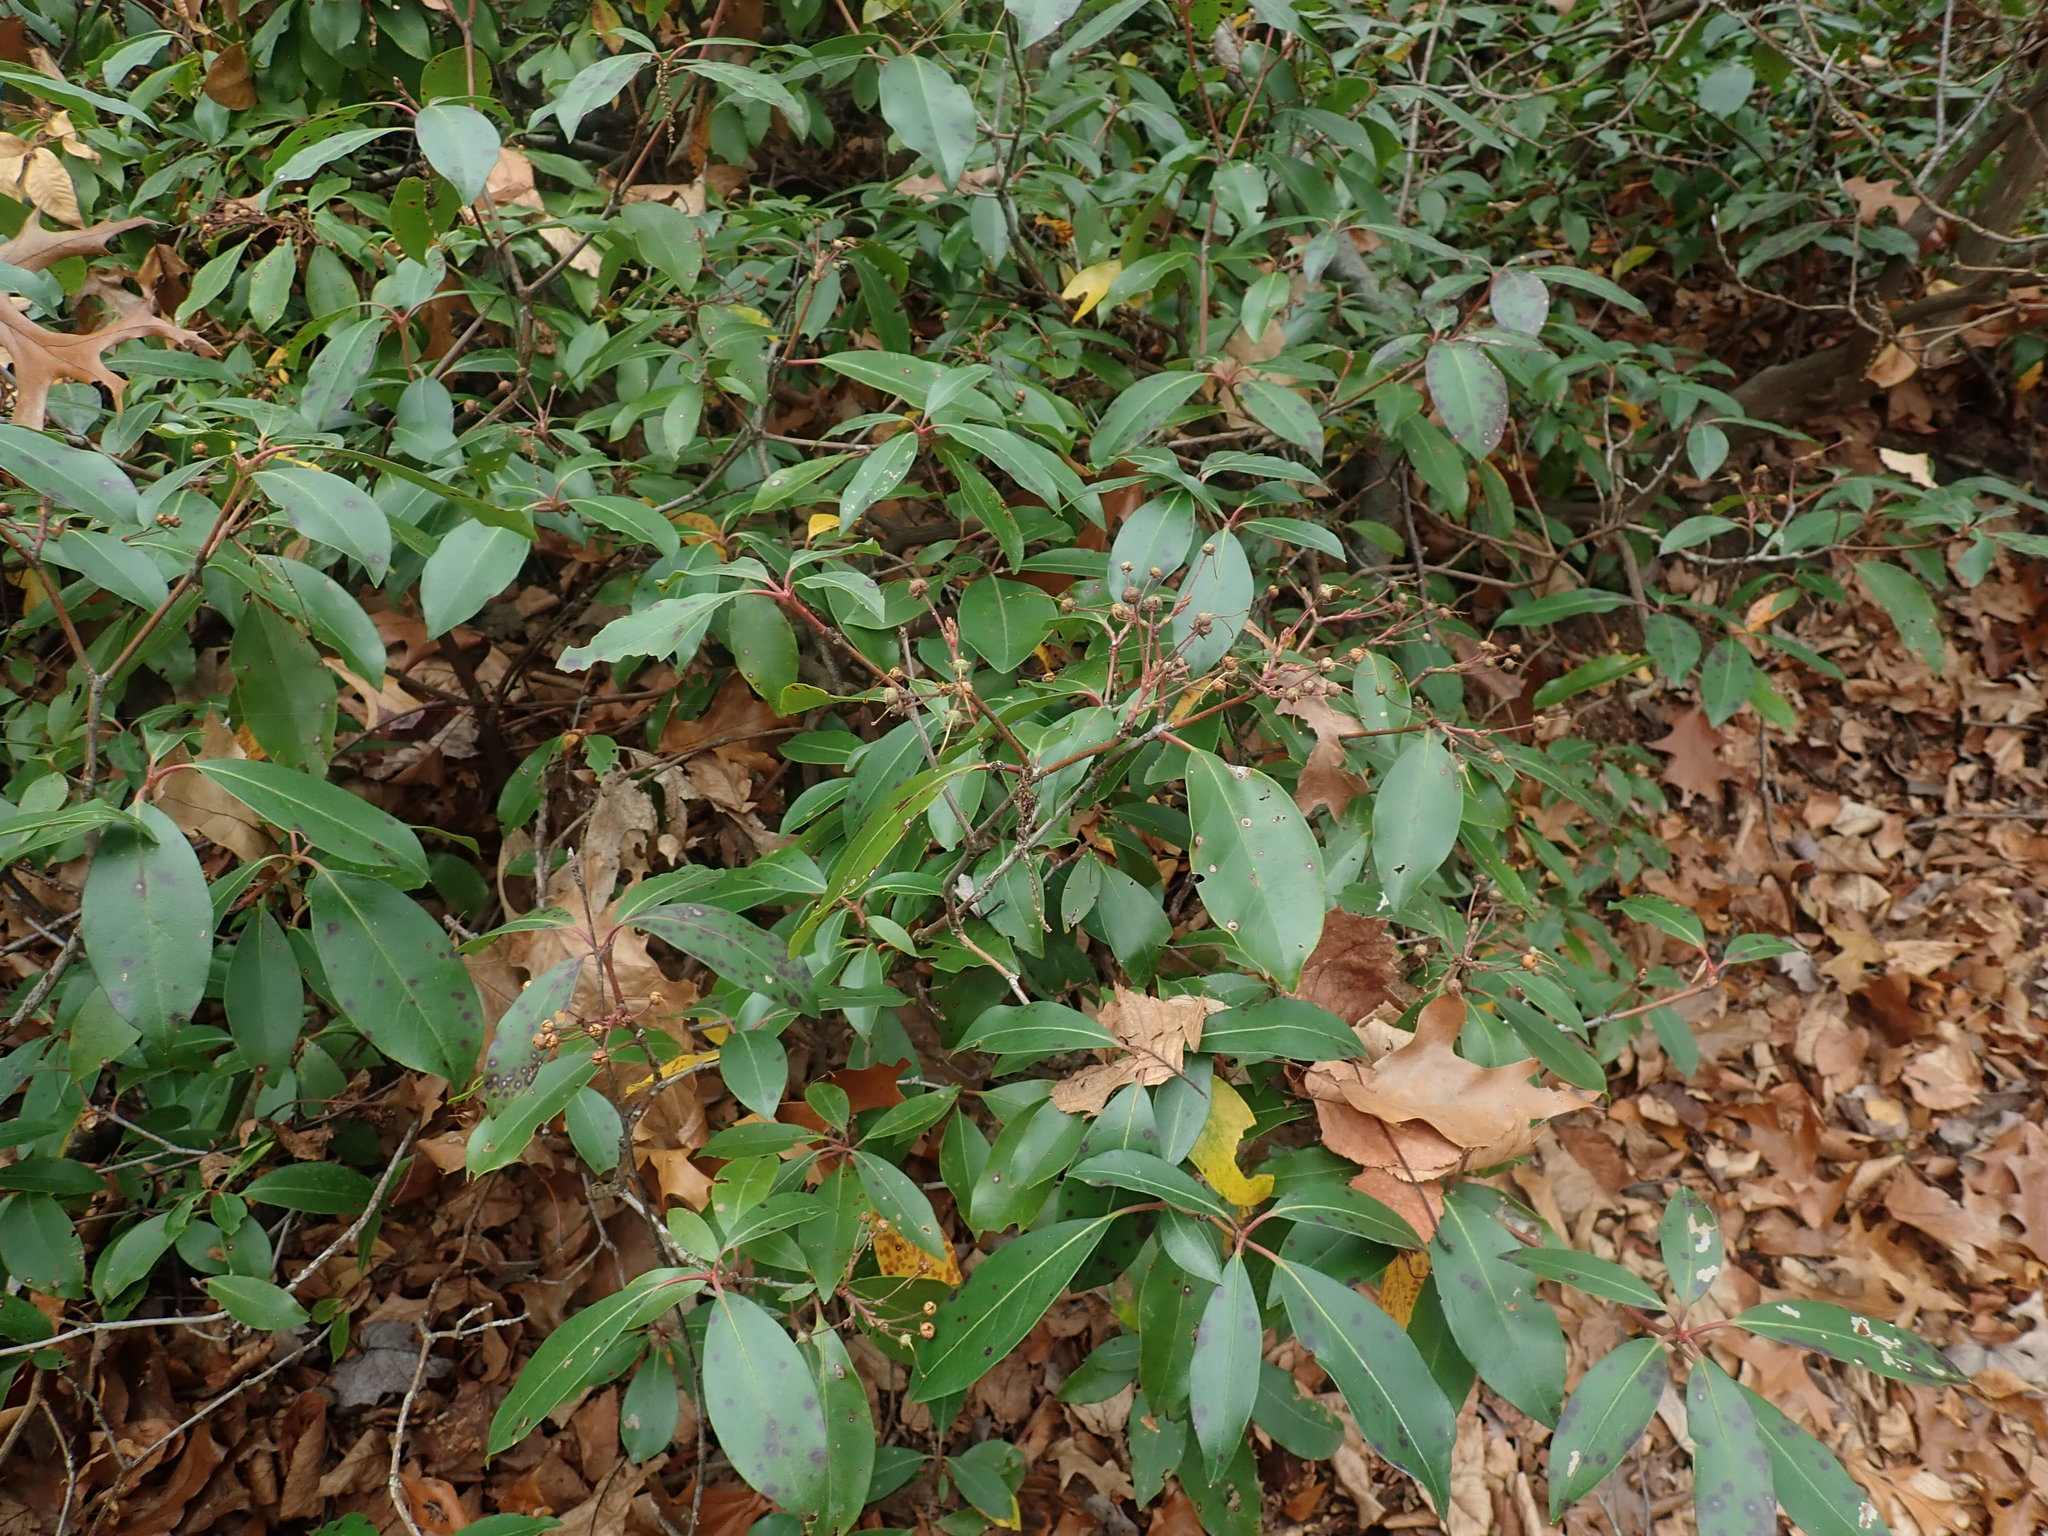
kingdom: Plantae
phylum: Tracheophyta
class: Magnoliopsida
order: Ericales
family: Ericaceae
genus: Kalmia
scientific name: Kalmia latifolia
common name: Mountain-laurel
